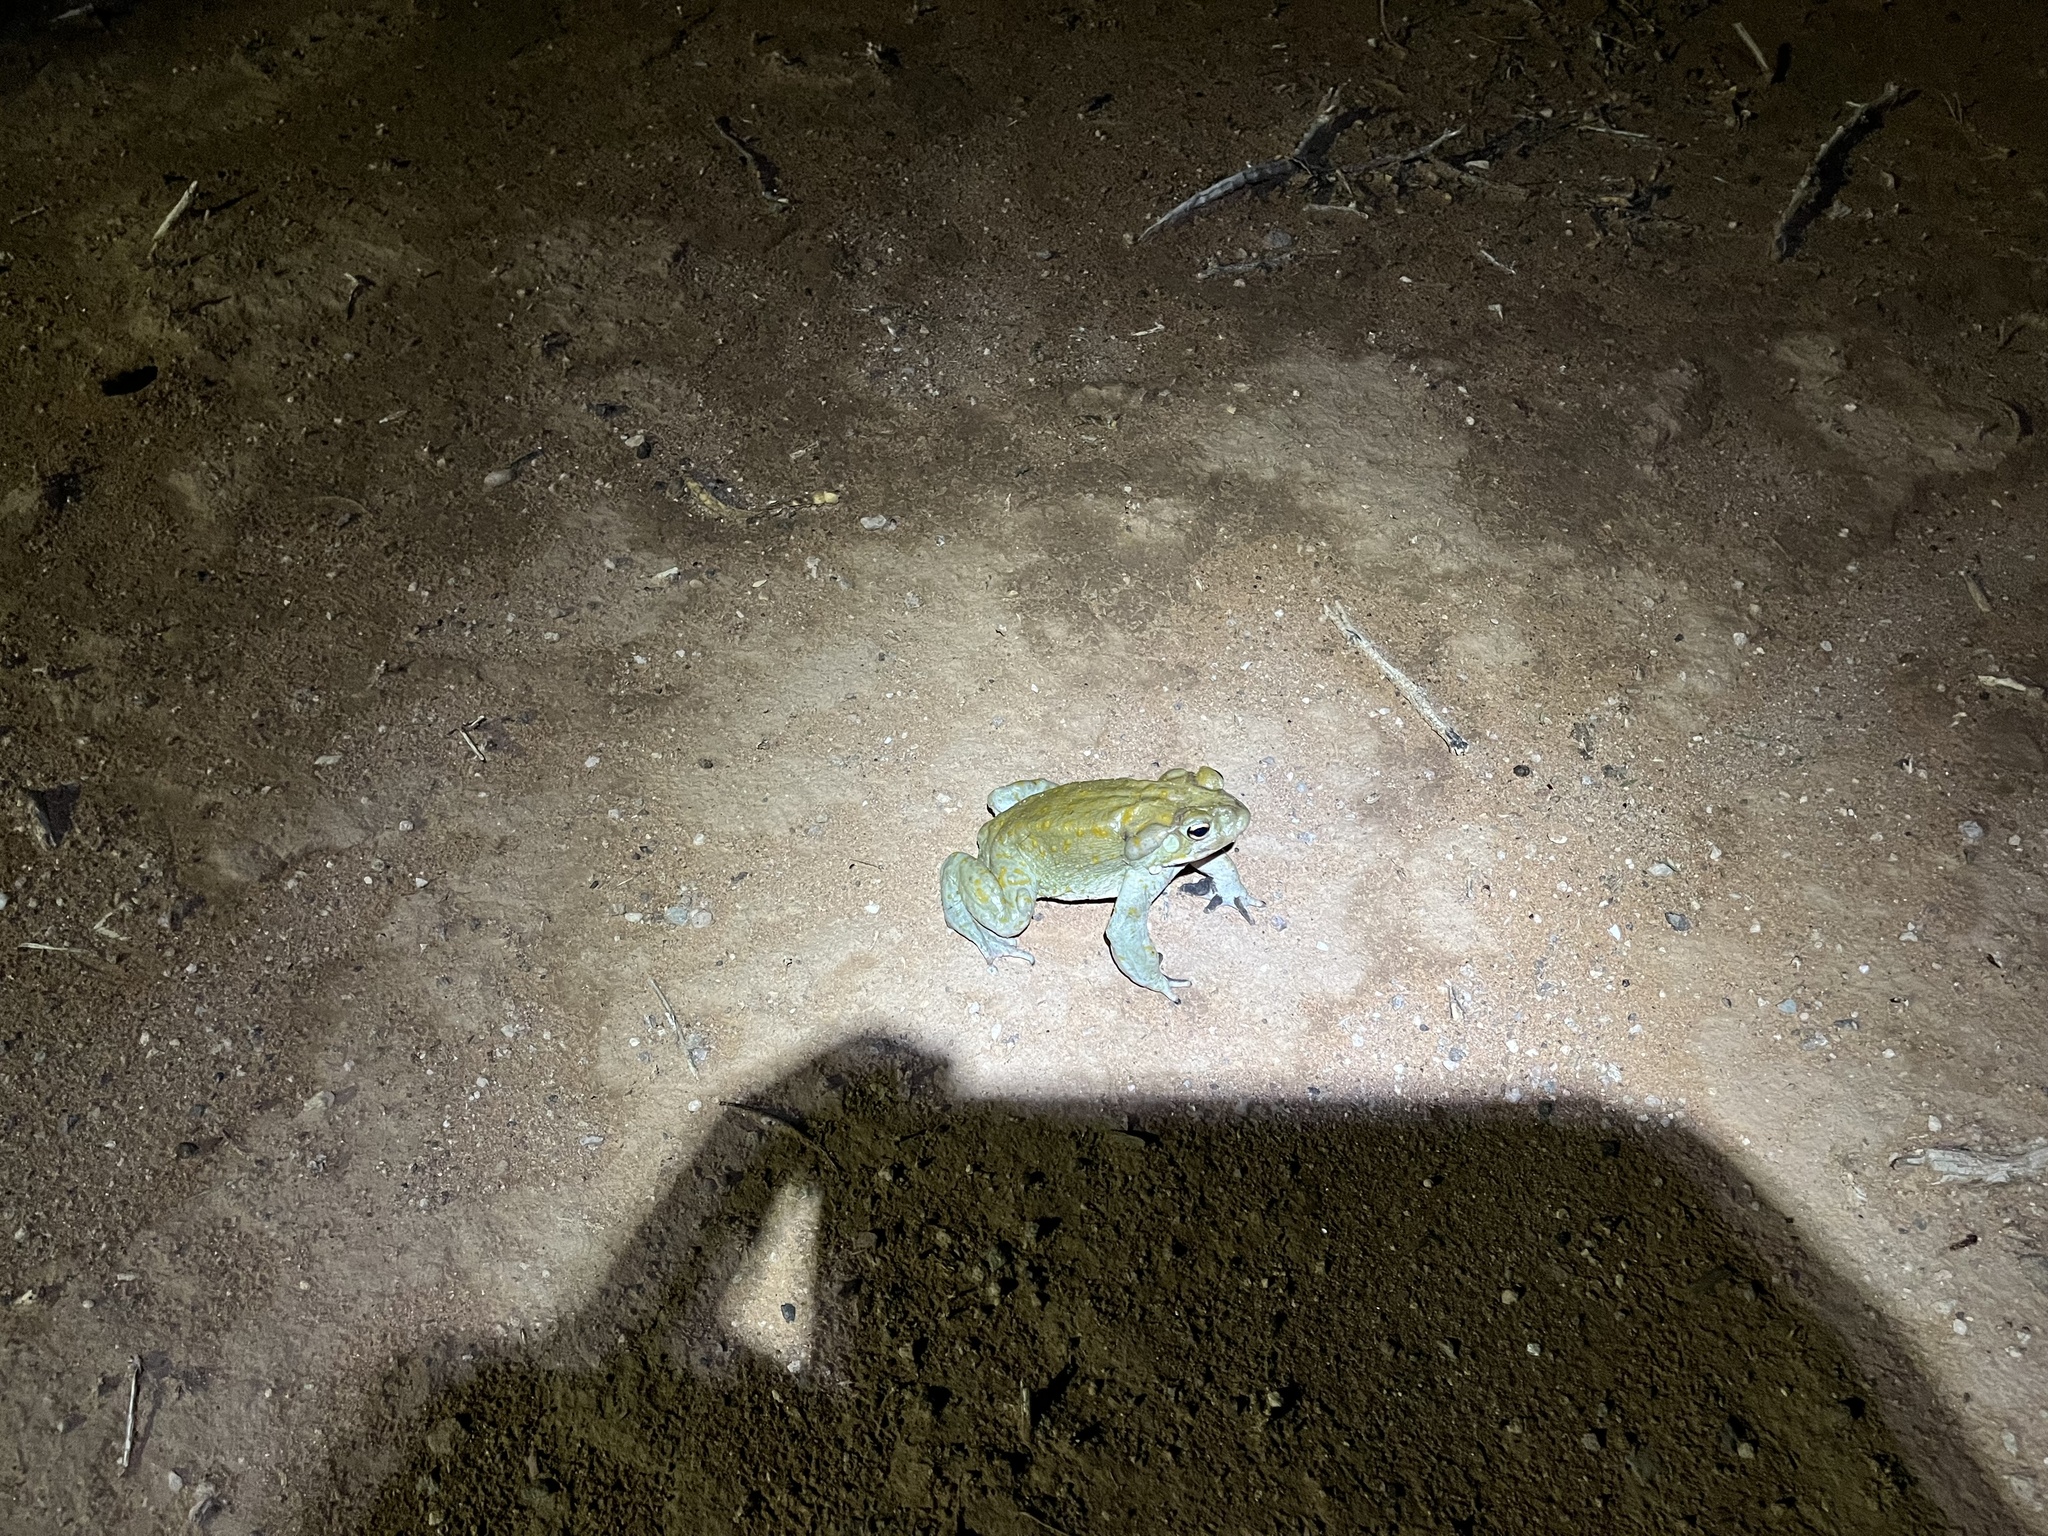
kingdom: Animalia
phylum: Chordata
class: Amphibia
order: Anura
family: Bufonidae
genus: Incilius
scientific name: Incilius alvarius
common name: Sonoran desert toad
